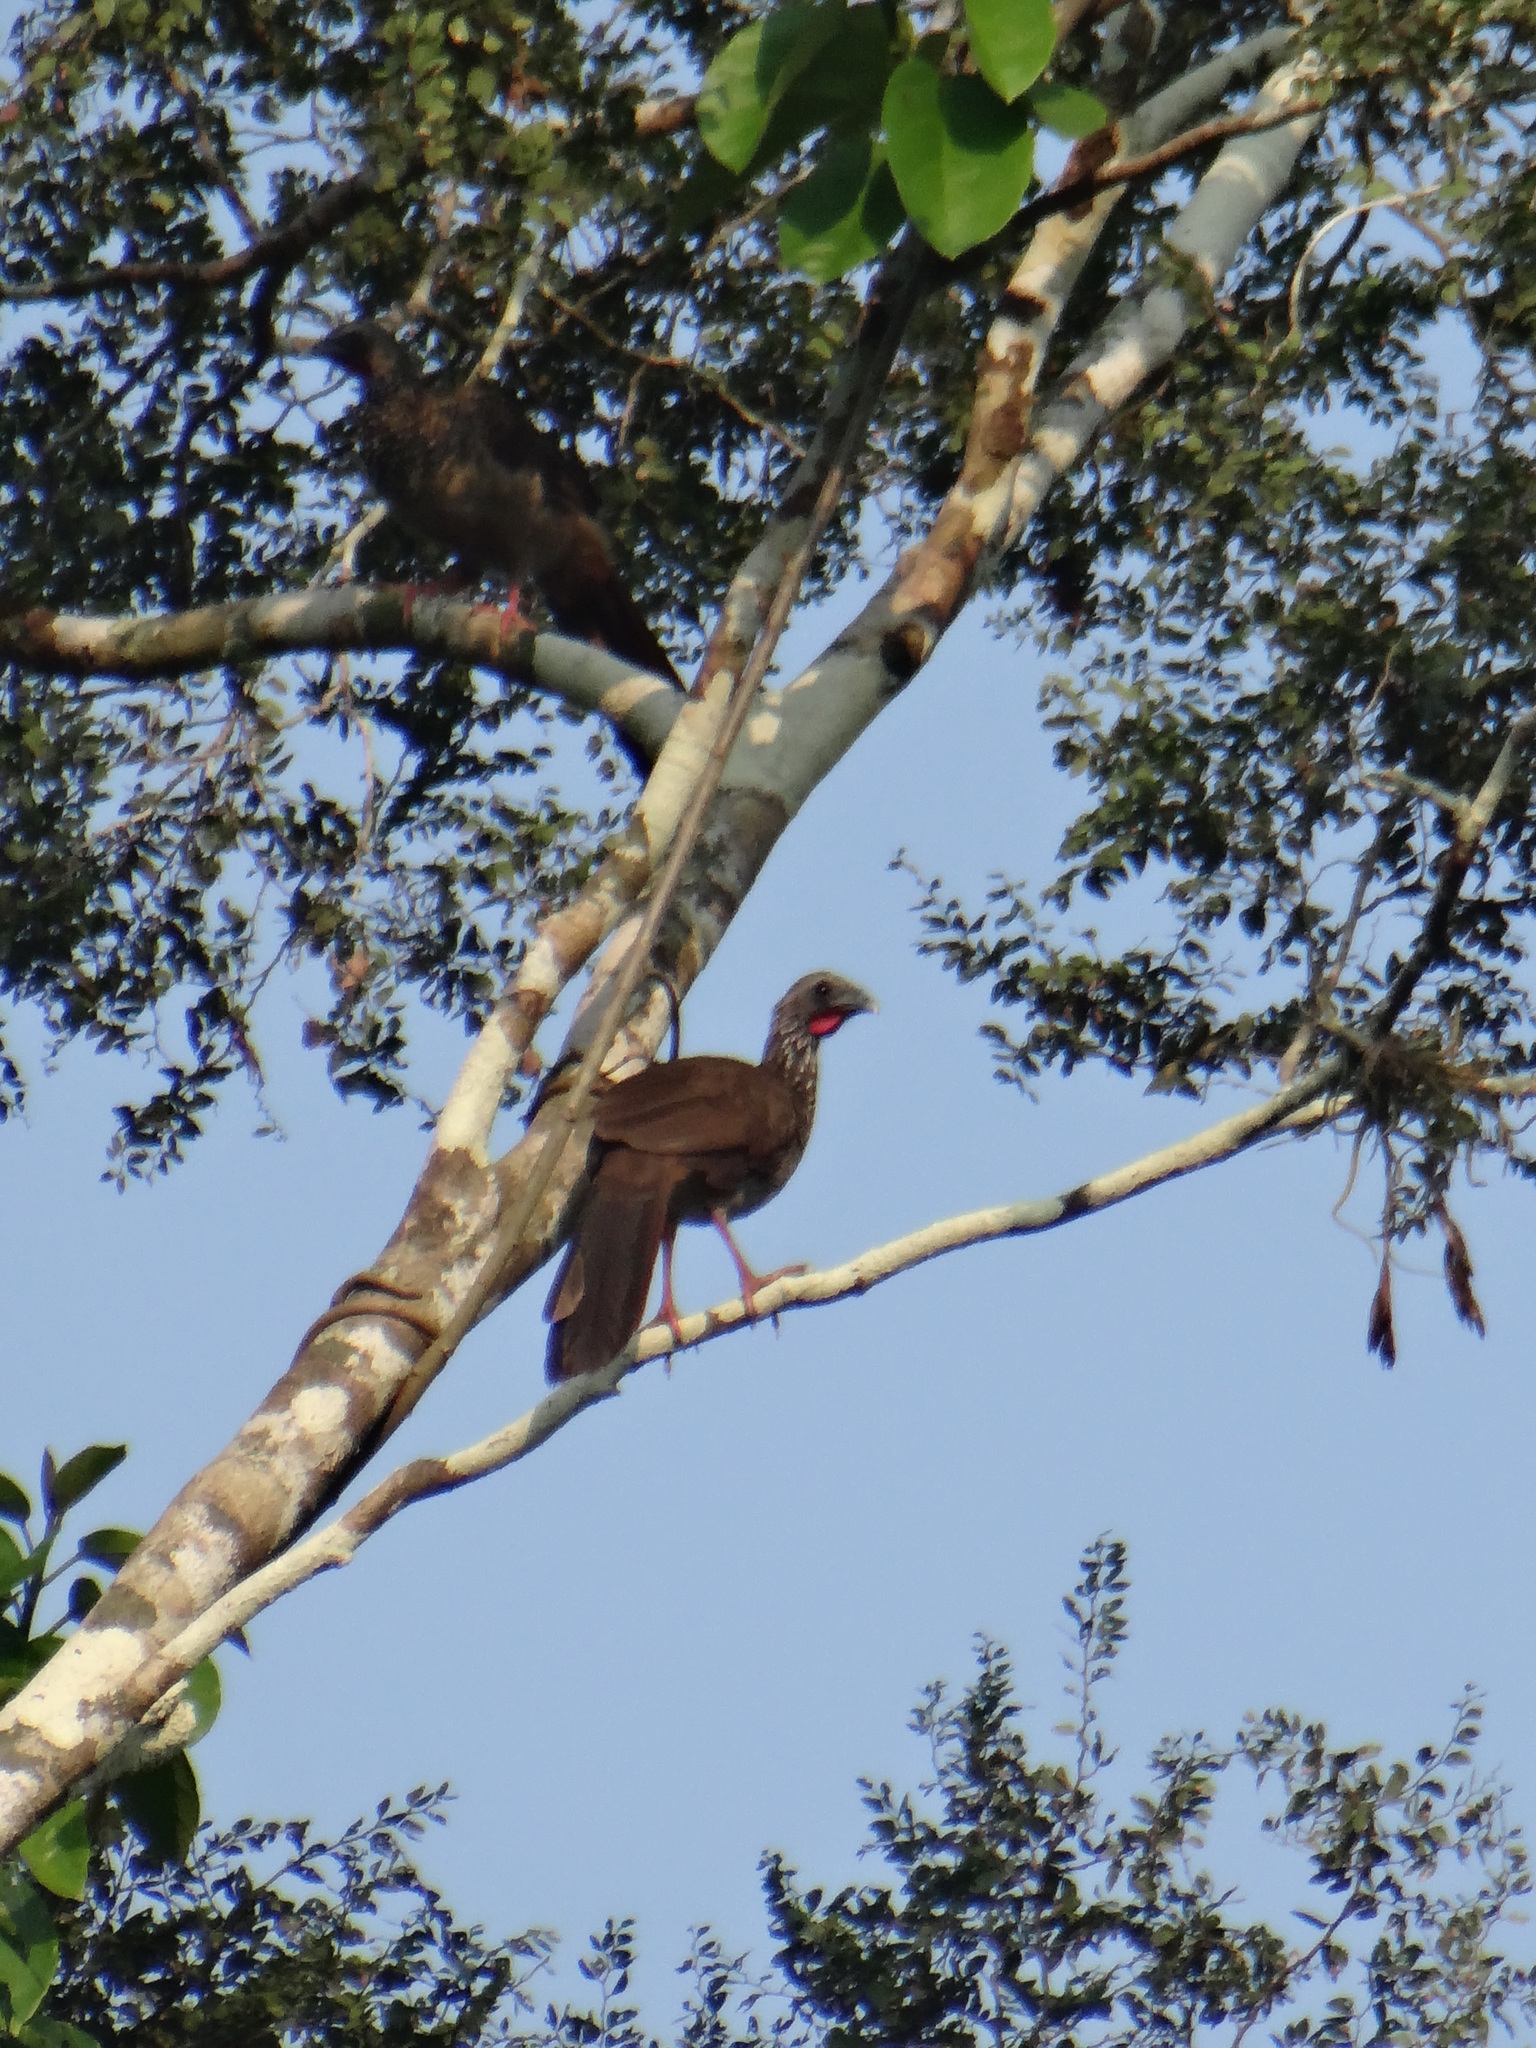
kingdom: Animalia
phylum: Chordata
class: Aves
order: Galliformes
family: Cracidae
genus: Ortalis
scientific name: Ortalis guttata
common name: Speckled chachalaca
